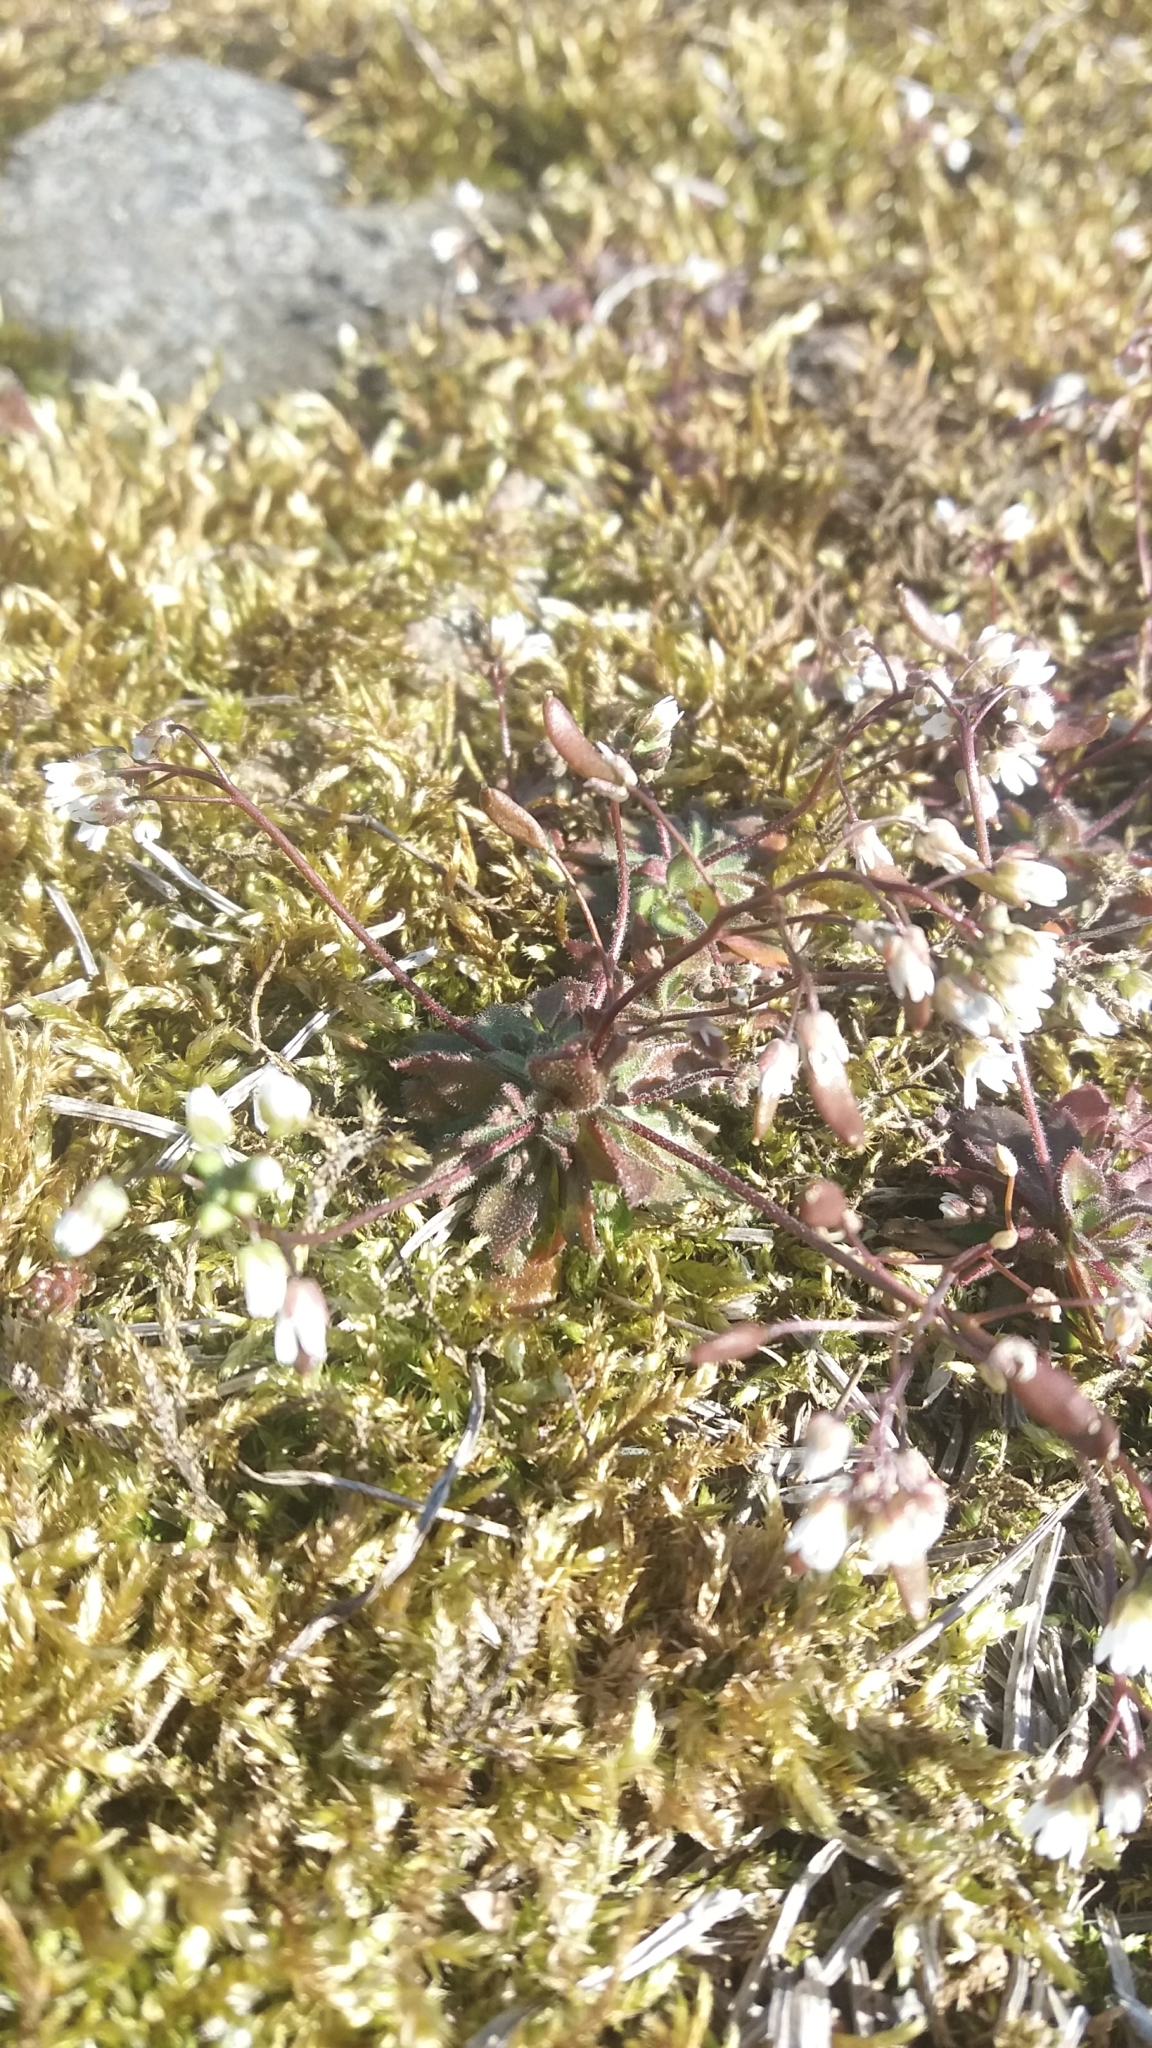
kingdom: Plantae
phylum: Tracheophyta
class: Magnoliopsida
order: Brassicales
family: Brassicaceae
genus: Draba
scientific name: Draba verna
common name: Spring draba
